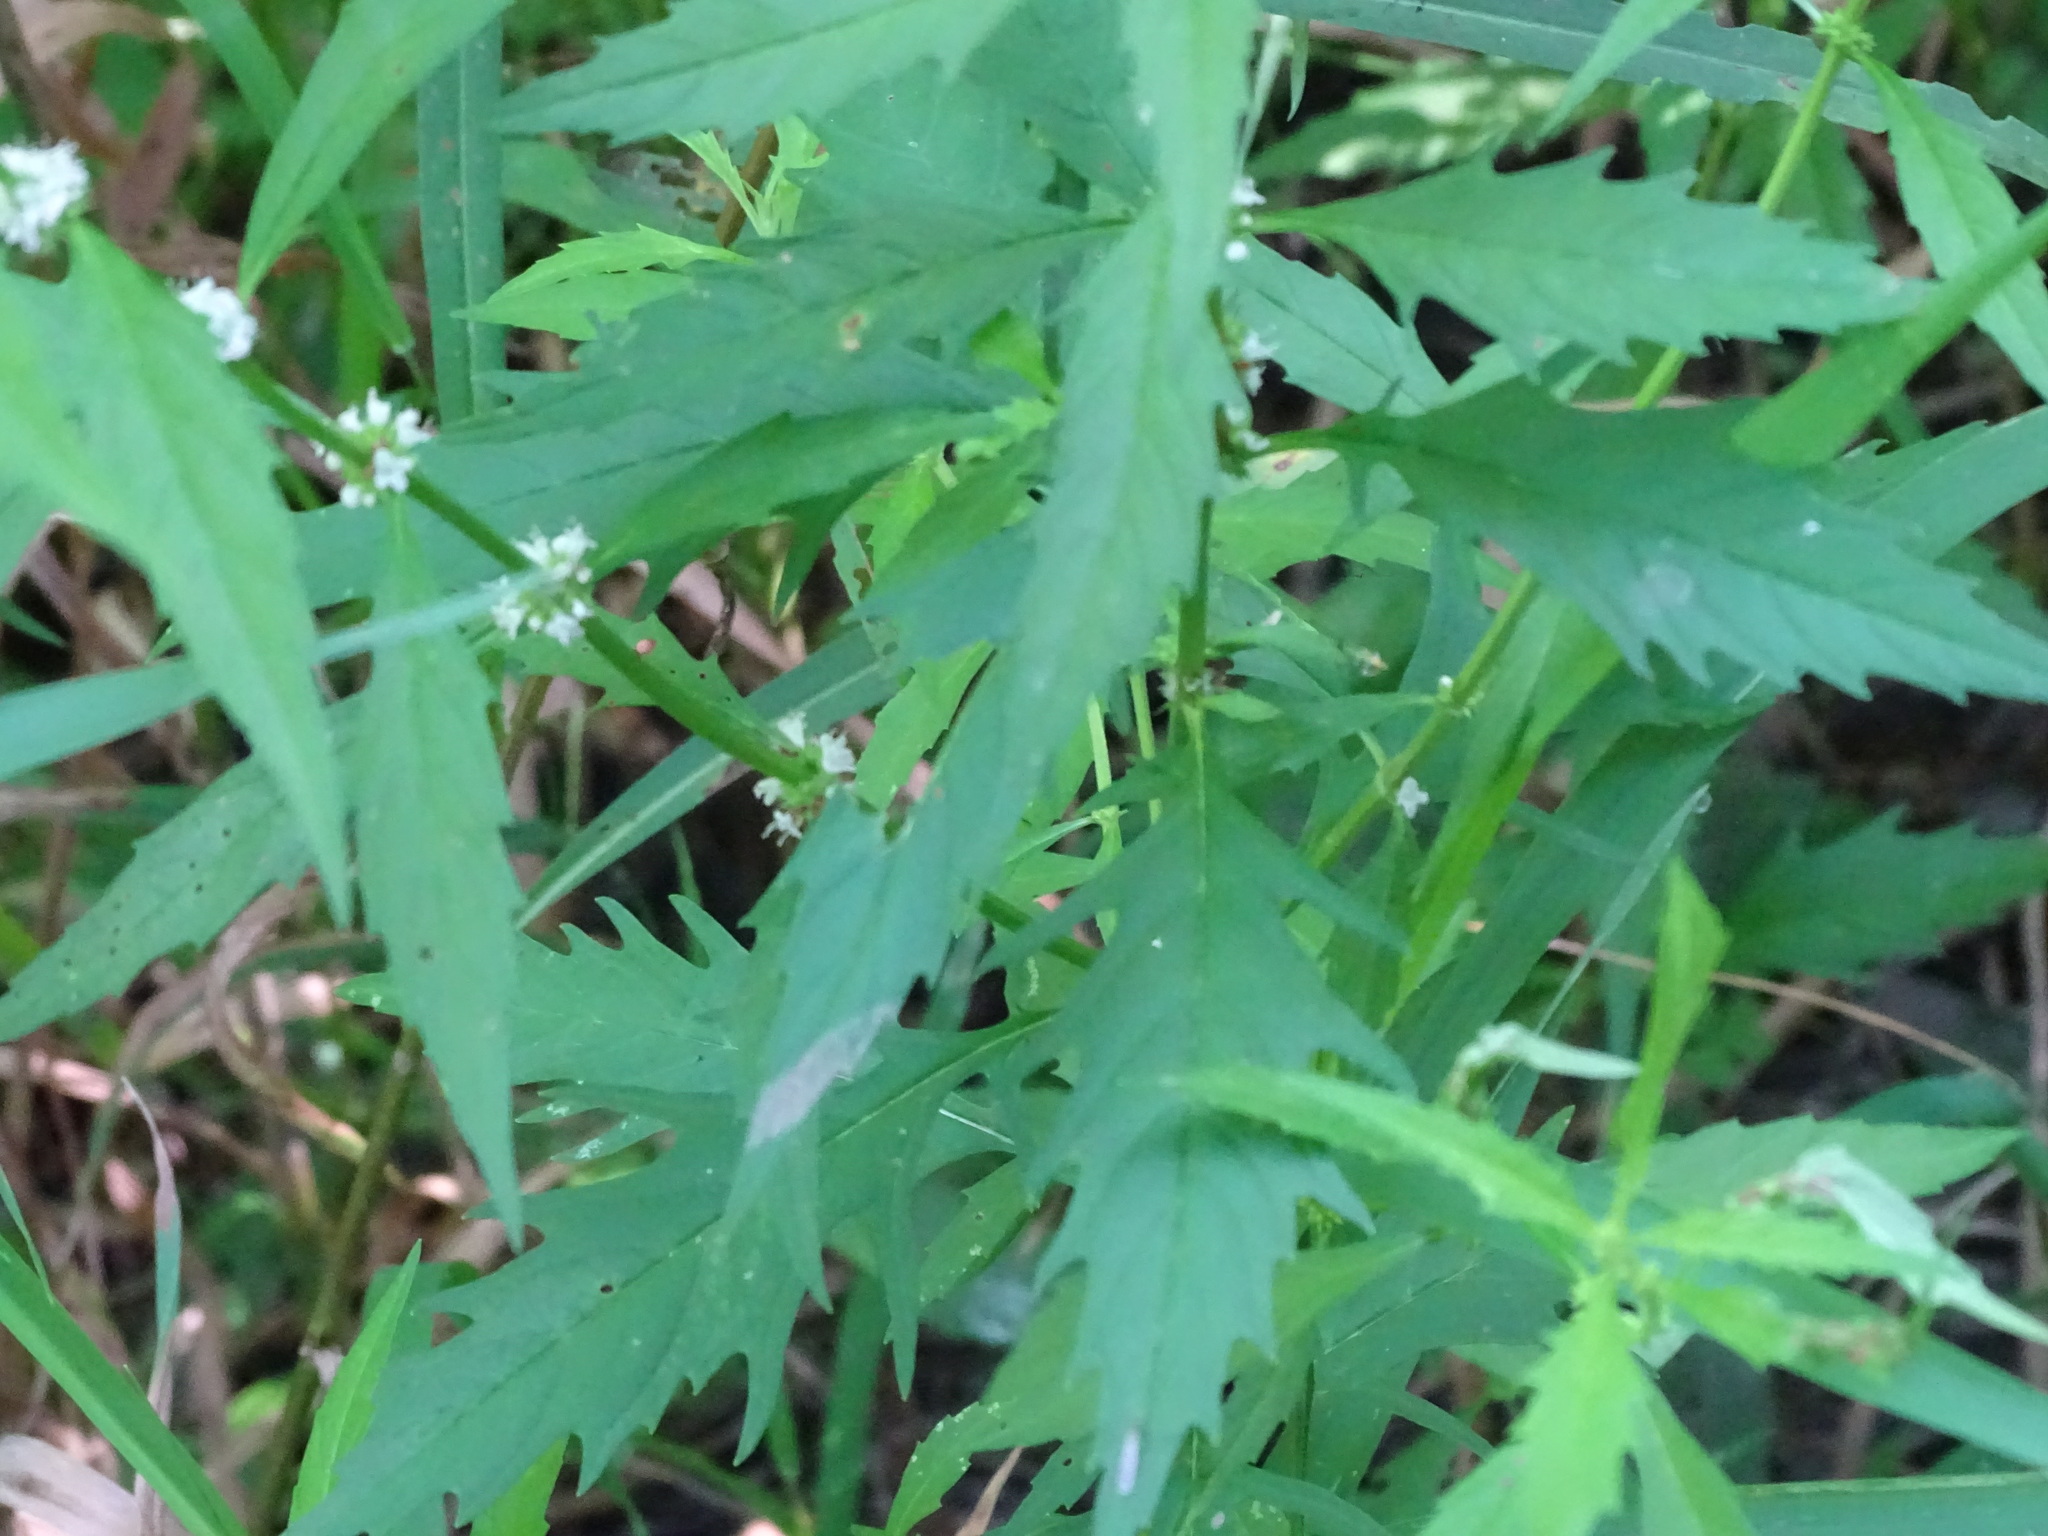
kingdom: Plantae
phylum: Tracheophyta
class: Magnoliopsida
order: Lamiales
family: Lamiaceae
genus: Lycopus
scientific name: Lycopus americanus
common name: American bugleweed
